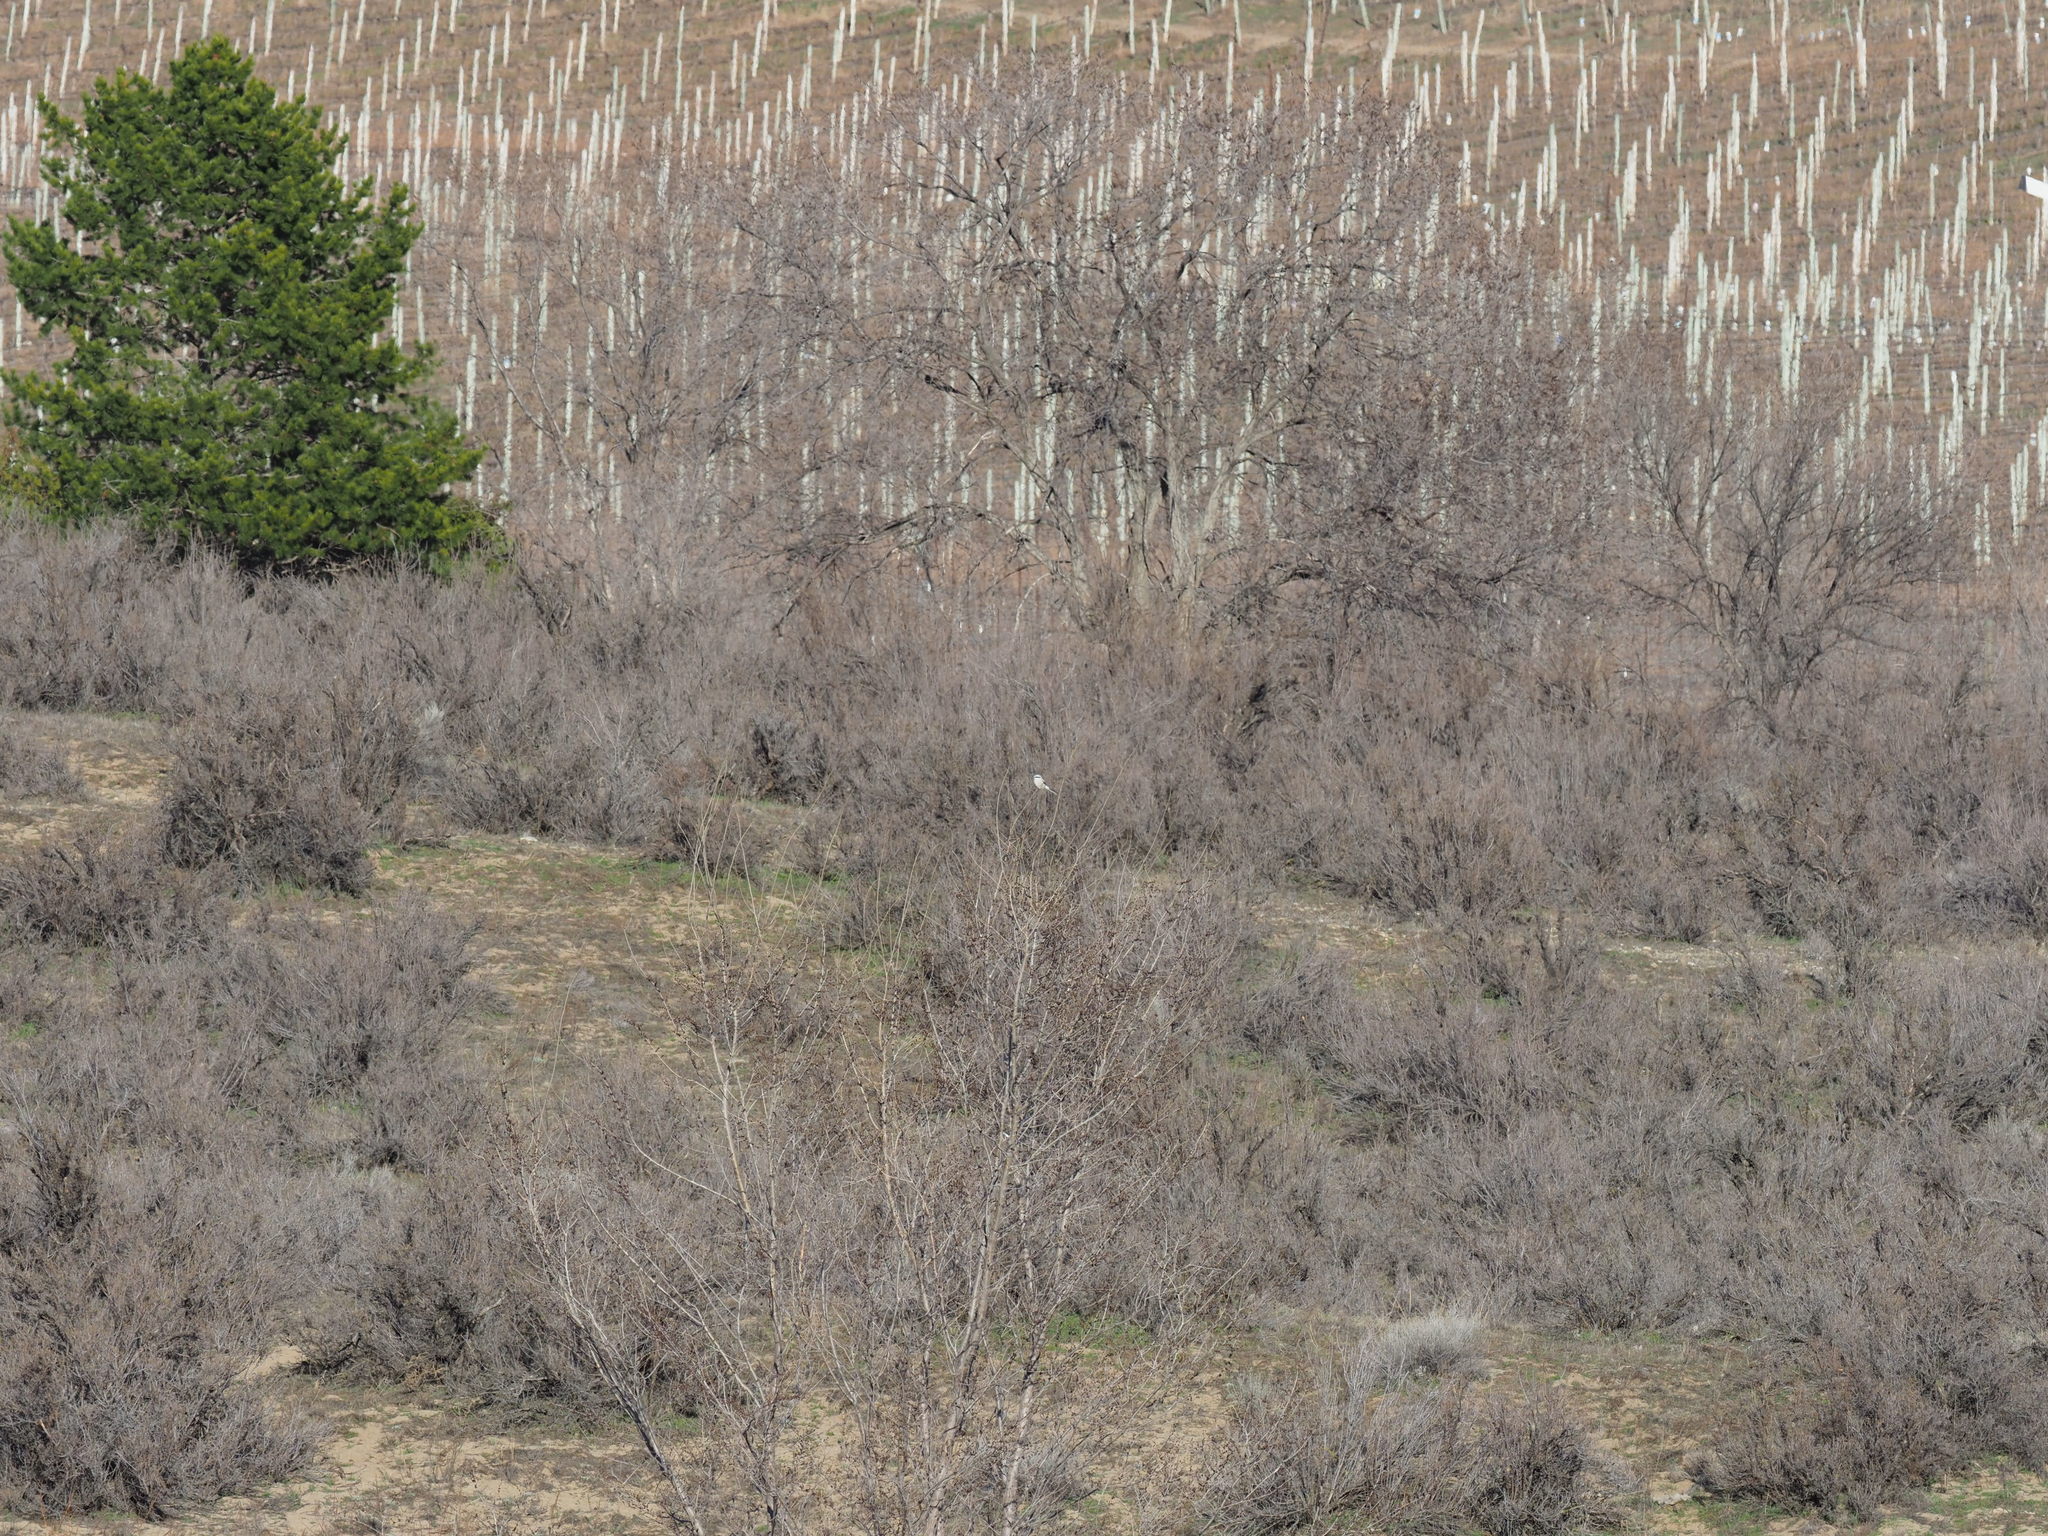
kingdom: Animalia
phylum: Chordata
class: Aves
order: Passeriformes
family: Laniidae
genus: Lanius
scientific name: Lanius borealis
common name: Northern shrike
